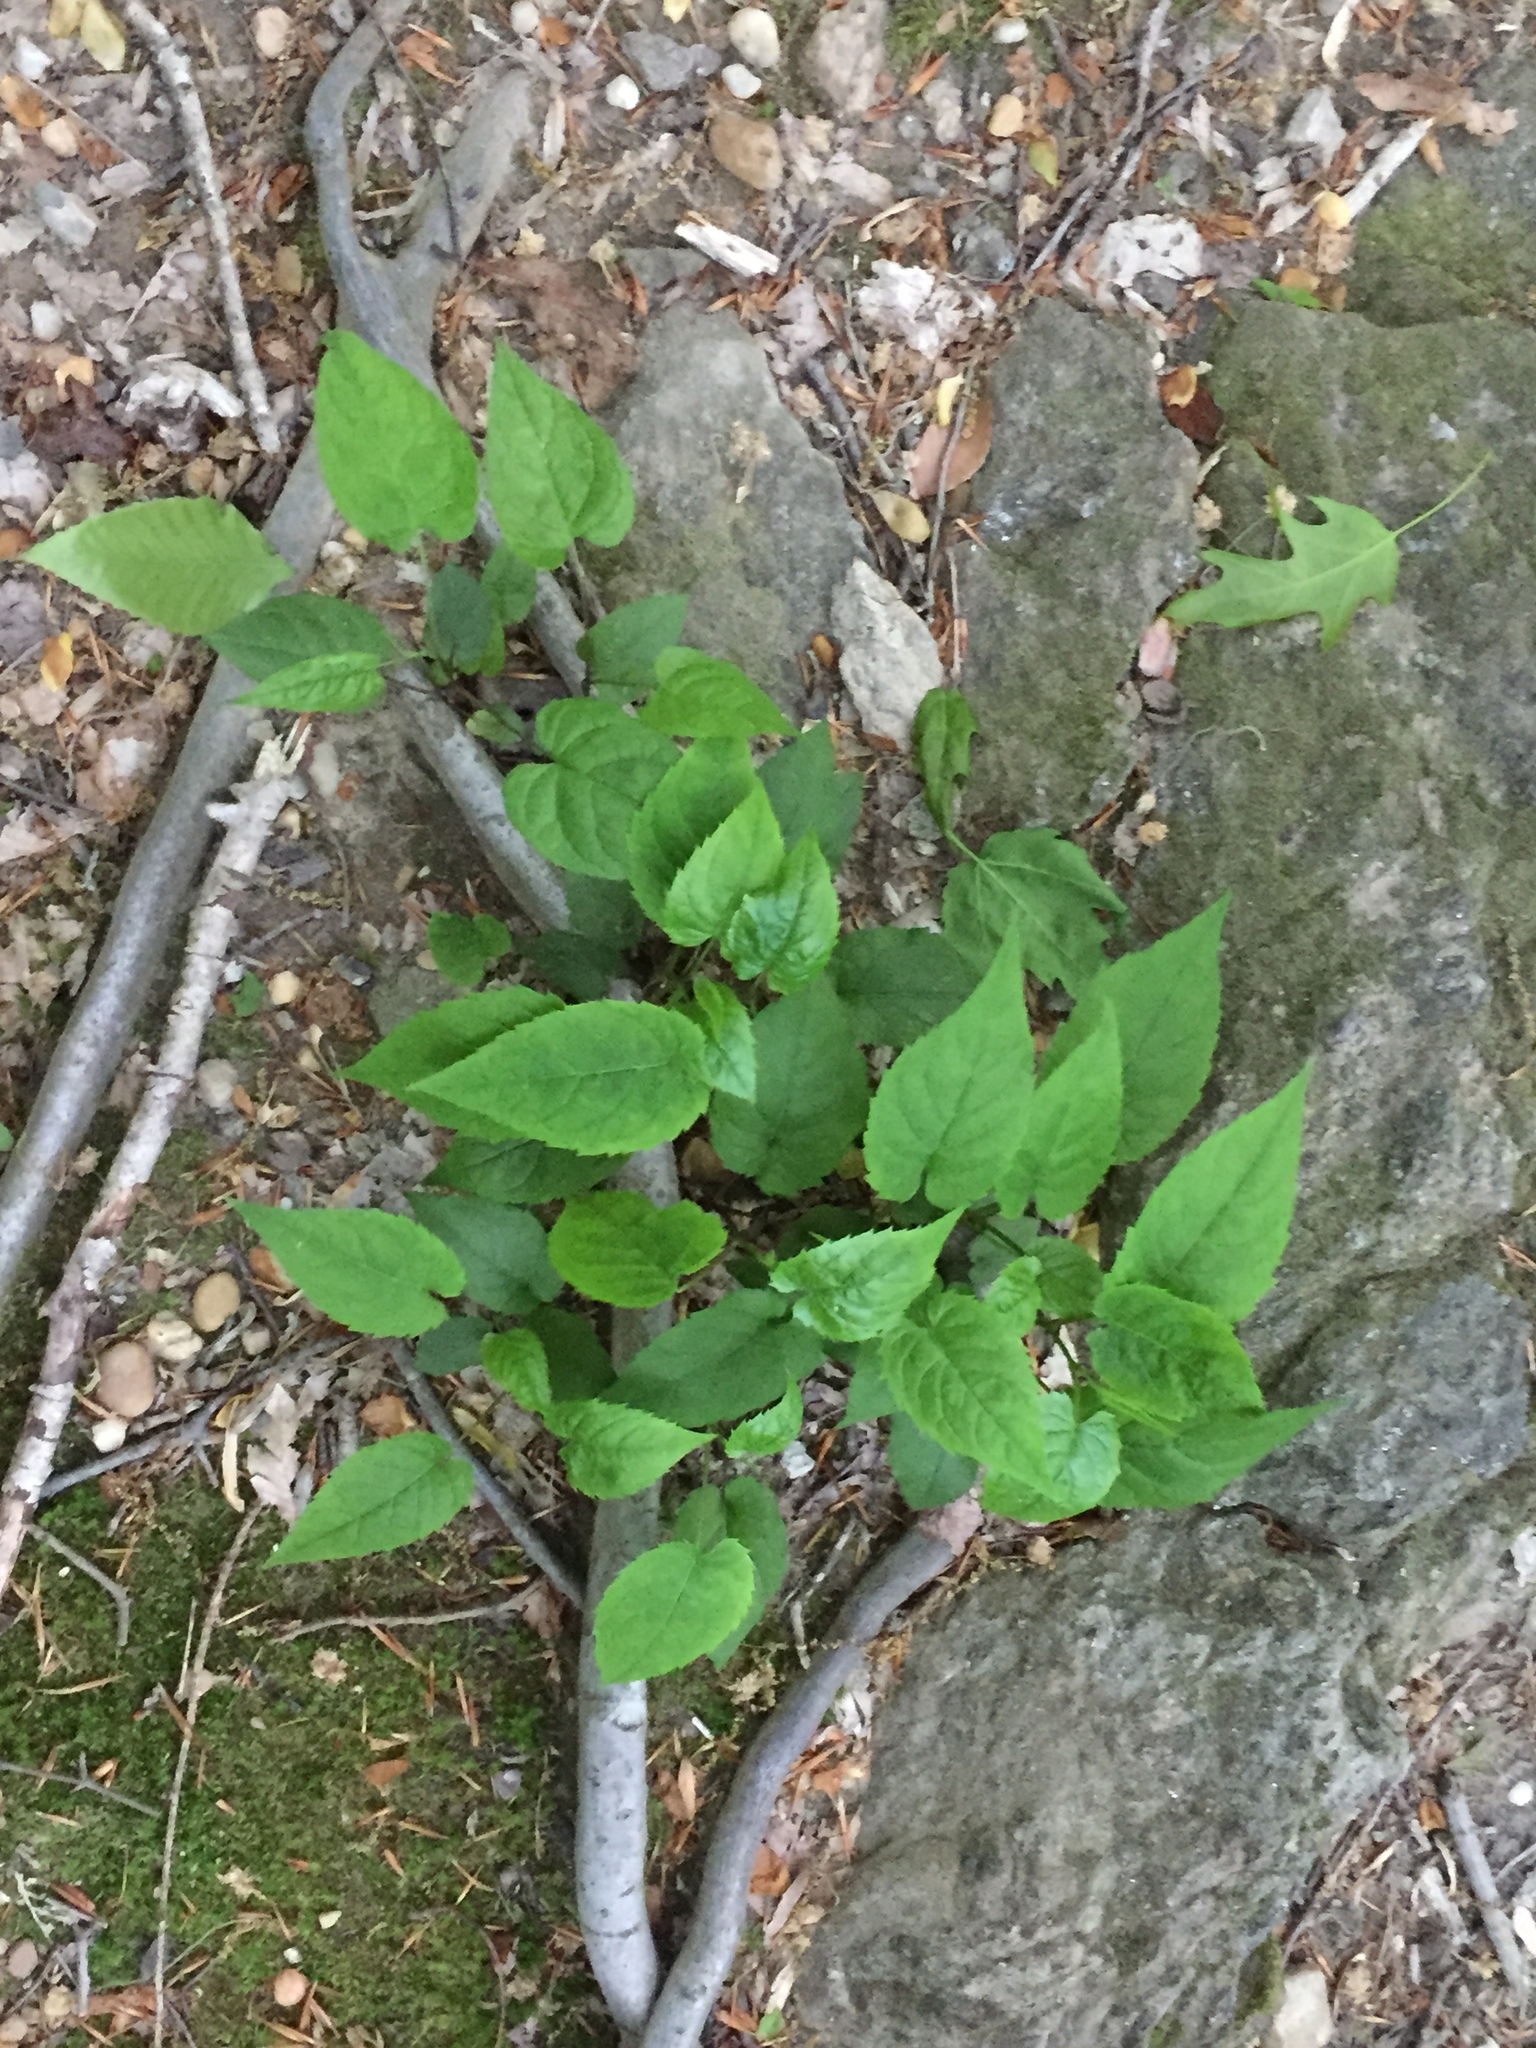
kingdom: Plantae
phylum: Tracheophyta
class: Magnoliopsida
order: Asterales
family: Asteraceae
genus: Eurybia
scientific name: Eurybia divaricata
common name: White wood aster
